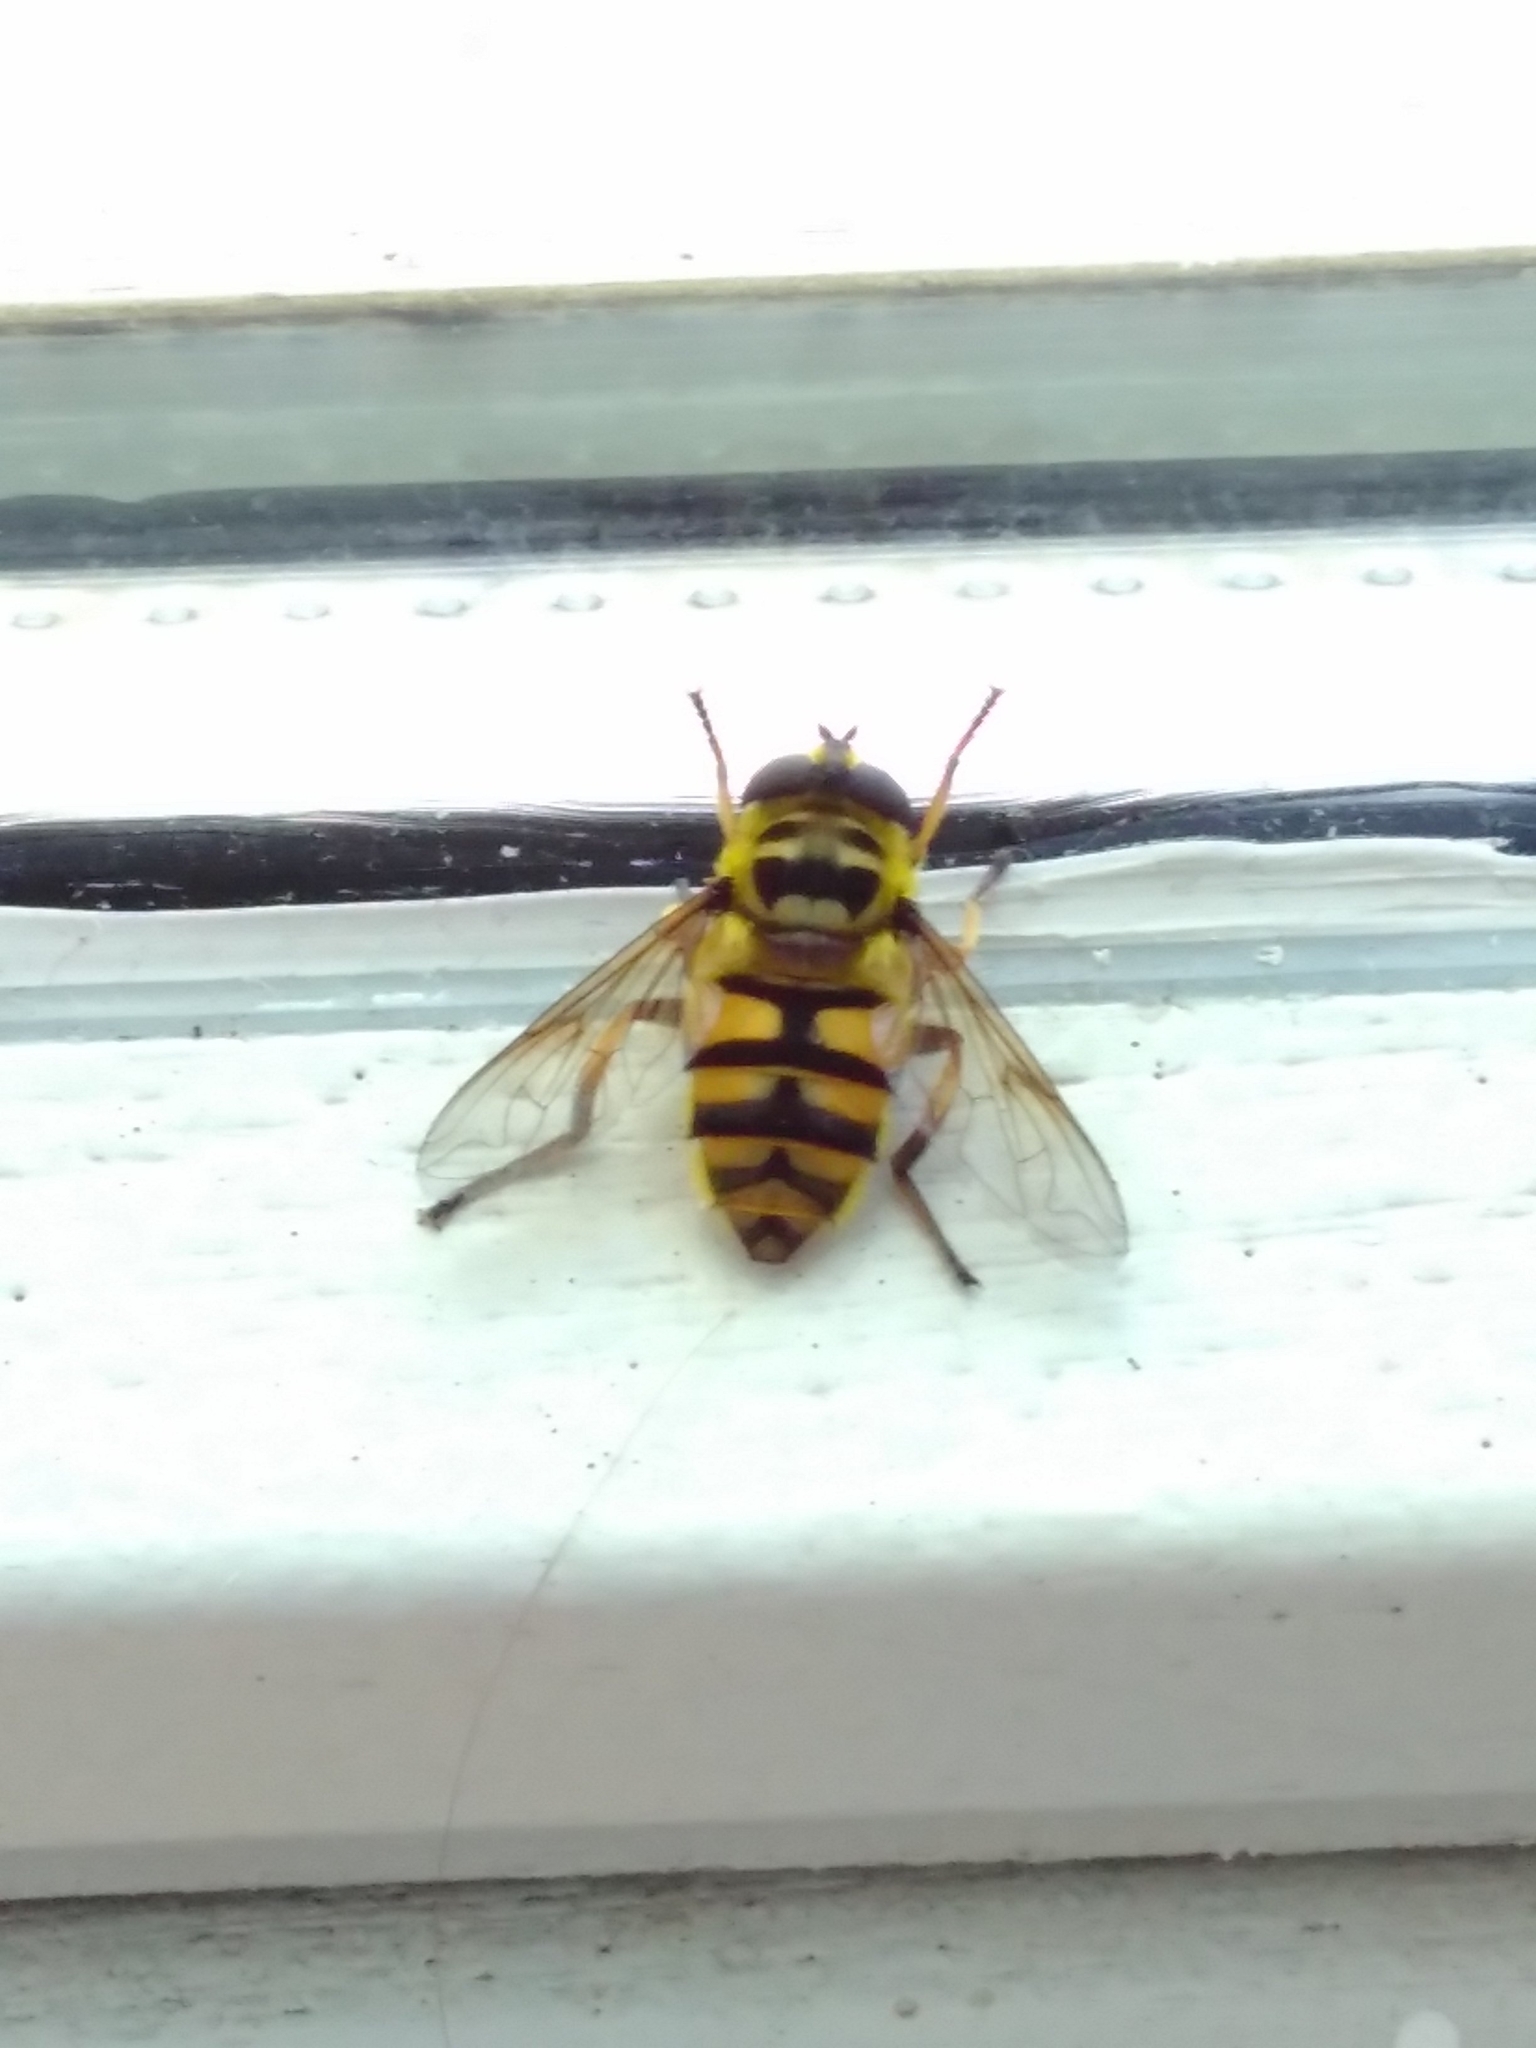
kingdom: Animalia
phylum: Arthropoda
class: Insecta
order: Diptera
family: Syrphidae
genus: Myathropa
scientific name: Myathropa florea
